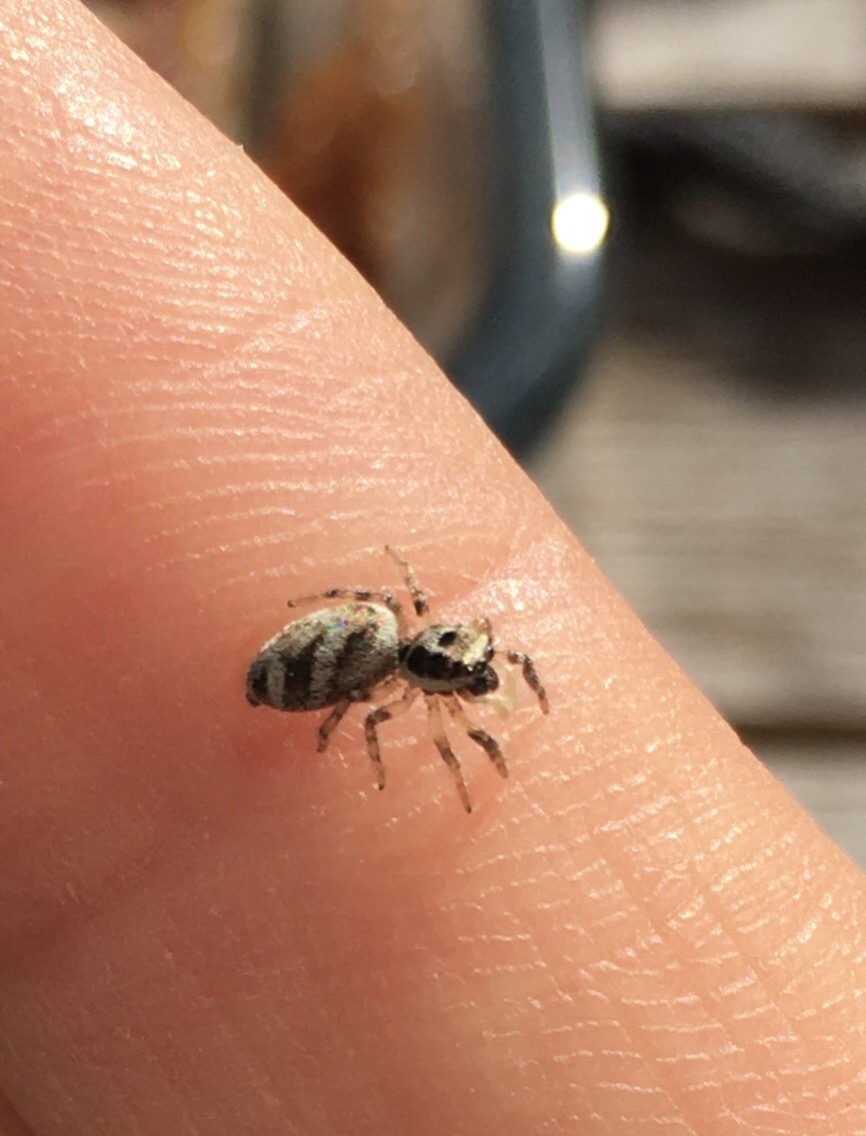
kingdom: Animalia
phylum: Arthropoda
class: Arachnida
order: Araneae
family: Salticidae
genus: Salticus
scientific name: Salticus scenicus
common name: Zebra jumper
